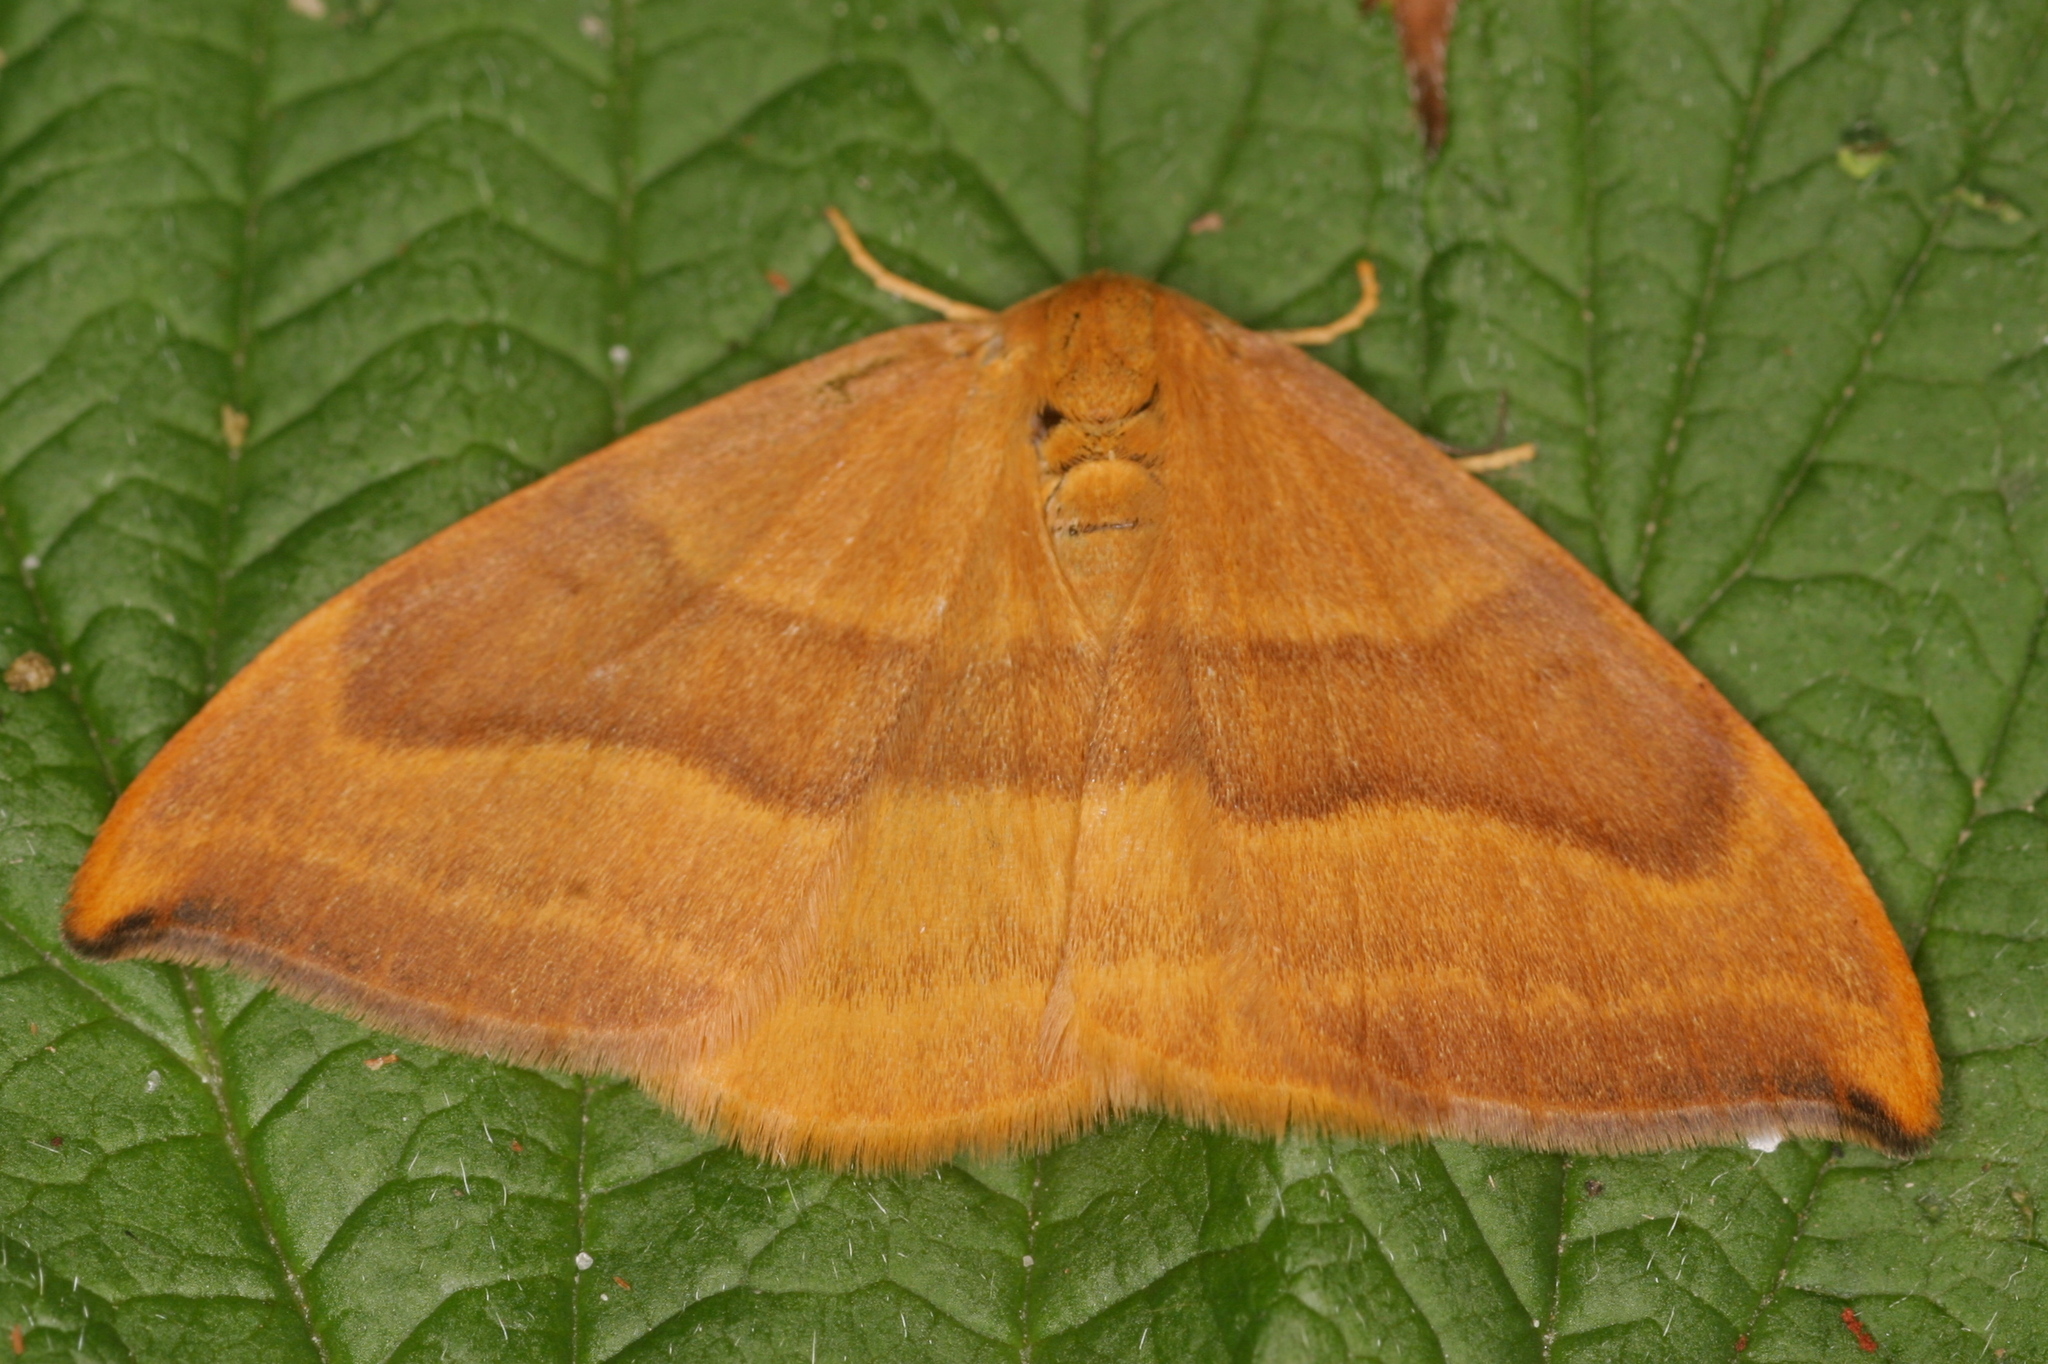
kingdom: Animalia
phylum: Arthropoda
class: Insecta
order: Lepidoptera
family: Drepanidae
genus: Watsonalla
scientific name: Watsonalla cultraria
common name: Barred hook-tip
